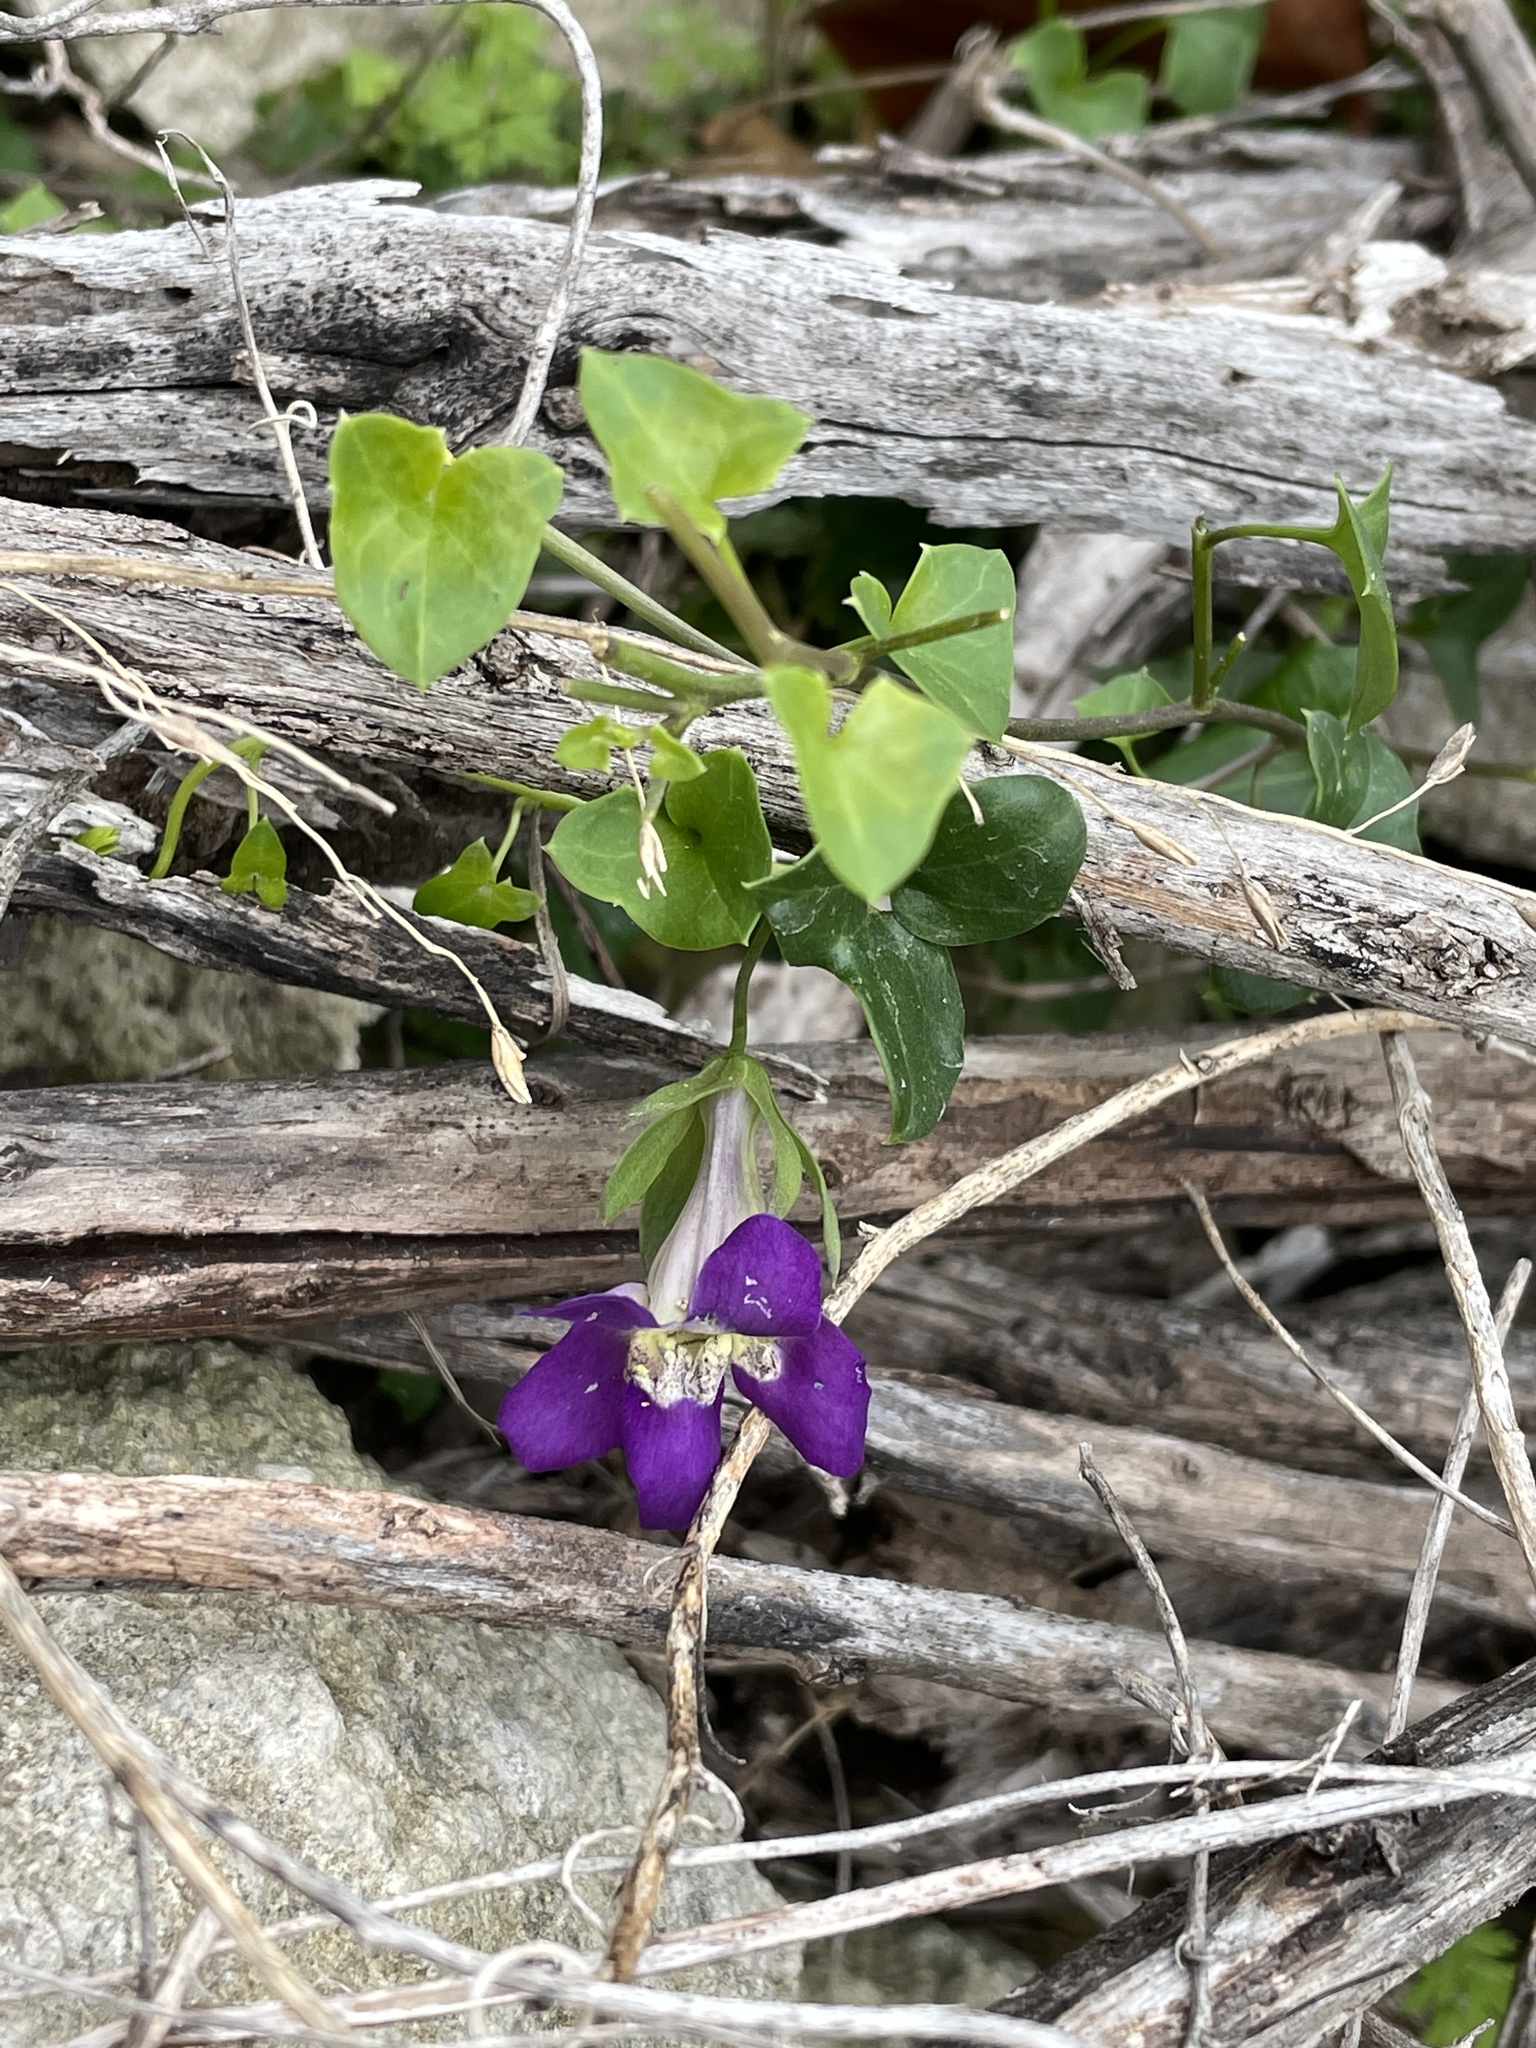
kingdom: Plantae
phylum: Tracheophyta
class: Magnoliopsida
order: Lamiales
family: Plantaginaceae
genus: Maurandella
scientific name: Maurandella antirrhiniflora
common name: Violet twining-snapdragon
